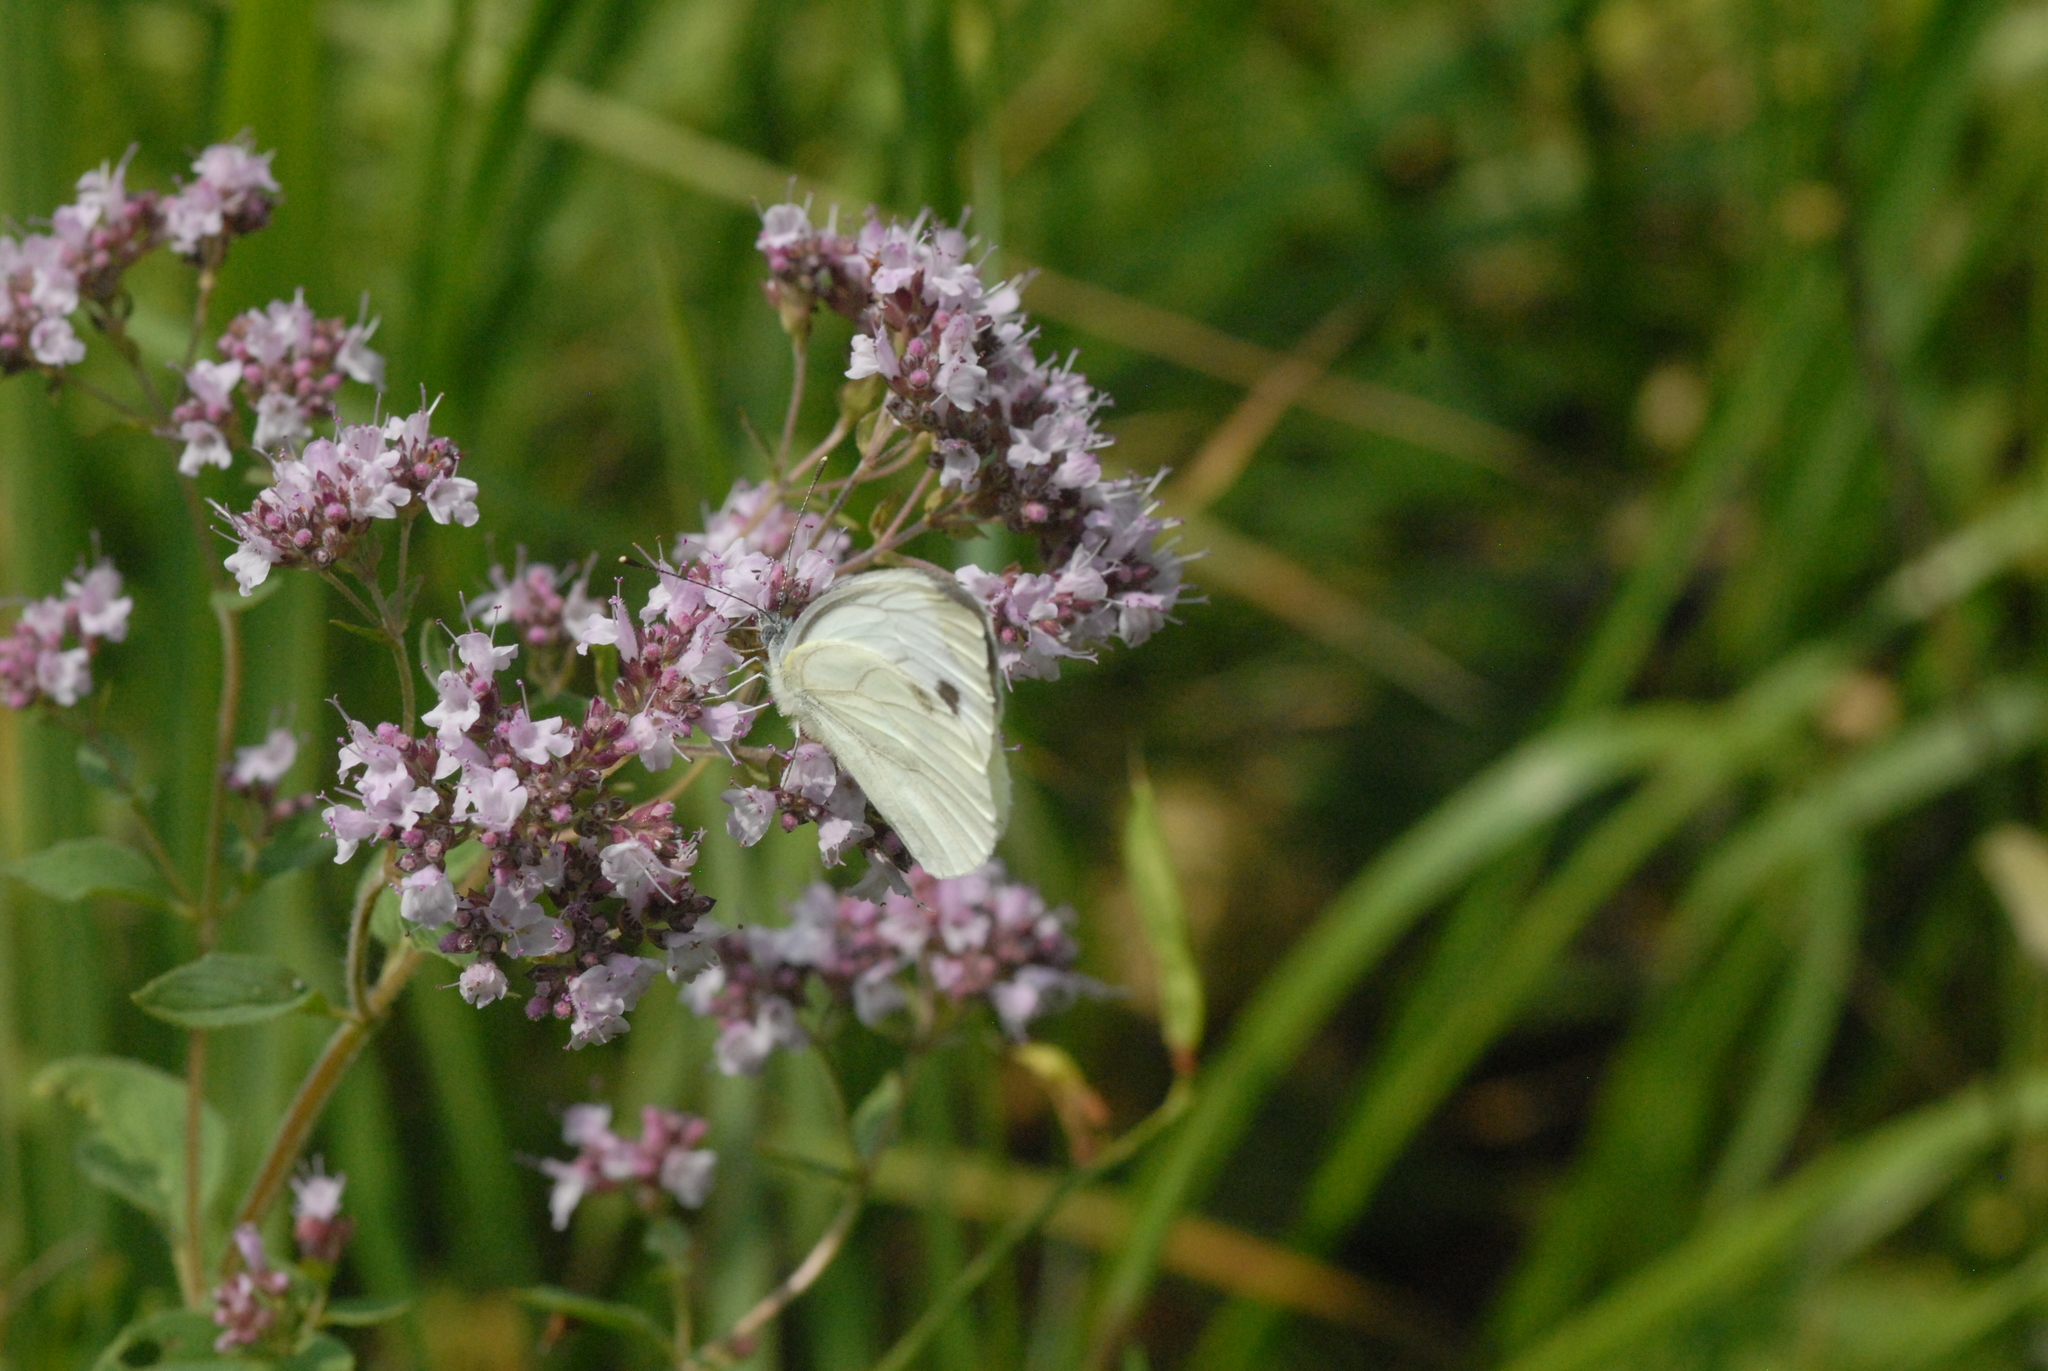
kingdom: Animalia
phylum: Arthropoda
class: Insecta
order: Lepidoptera
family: Pieridae
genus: Pieris
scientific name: Pieris napi
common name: Green-veined white
